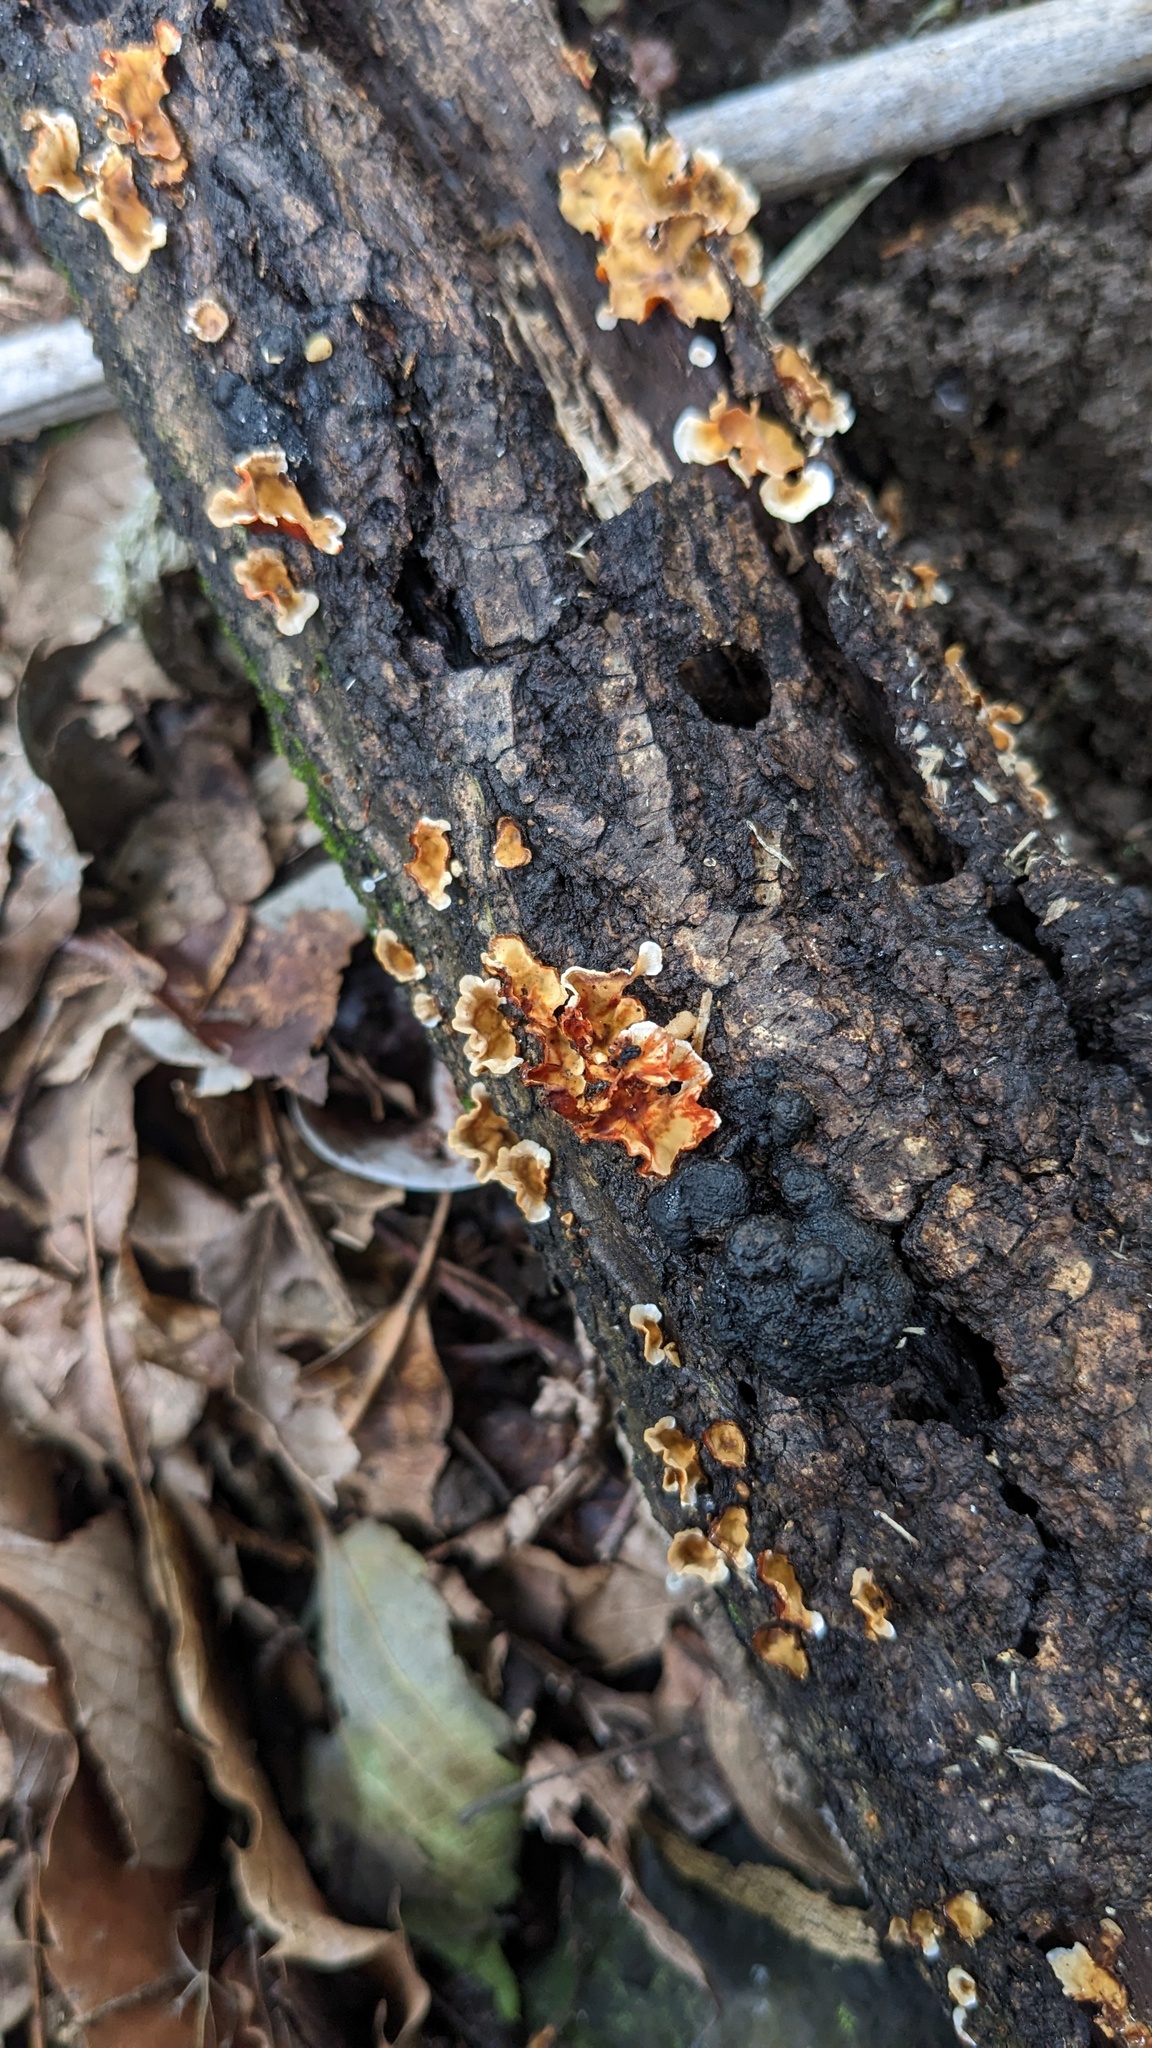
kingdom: Fungi
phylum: Basidiomycota
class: Agaricomycetes
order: Russulales
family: Stereaceae
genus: Stereum
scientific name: Stereum gausapatum
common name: Bleeding oak crust
